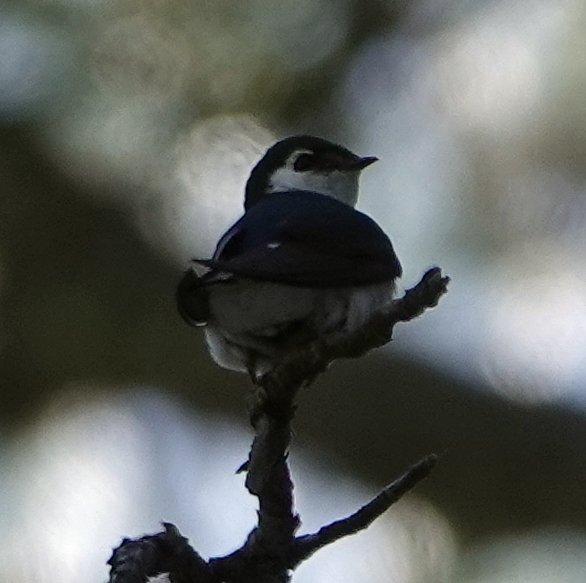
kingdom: Animalia
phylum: Chordata
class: Aves
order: Passeriformes
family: Hirundinidae
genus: Tachycineta
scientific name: Tachycineta thalassina
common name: Violet-green swallow
